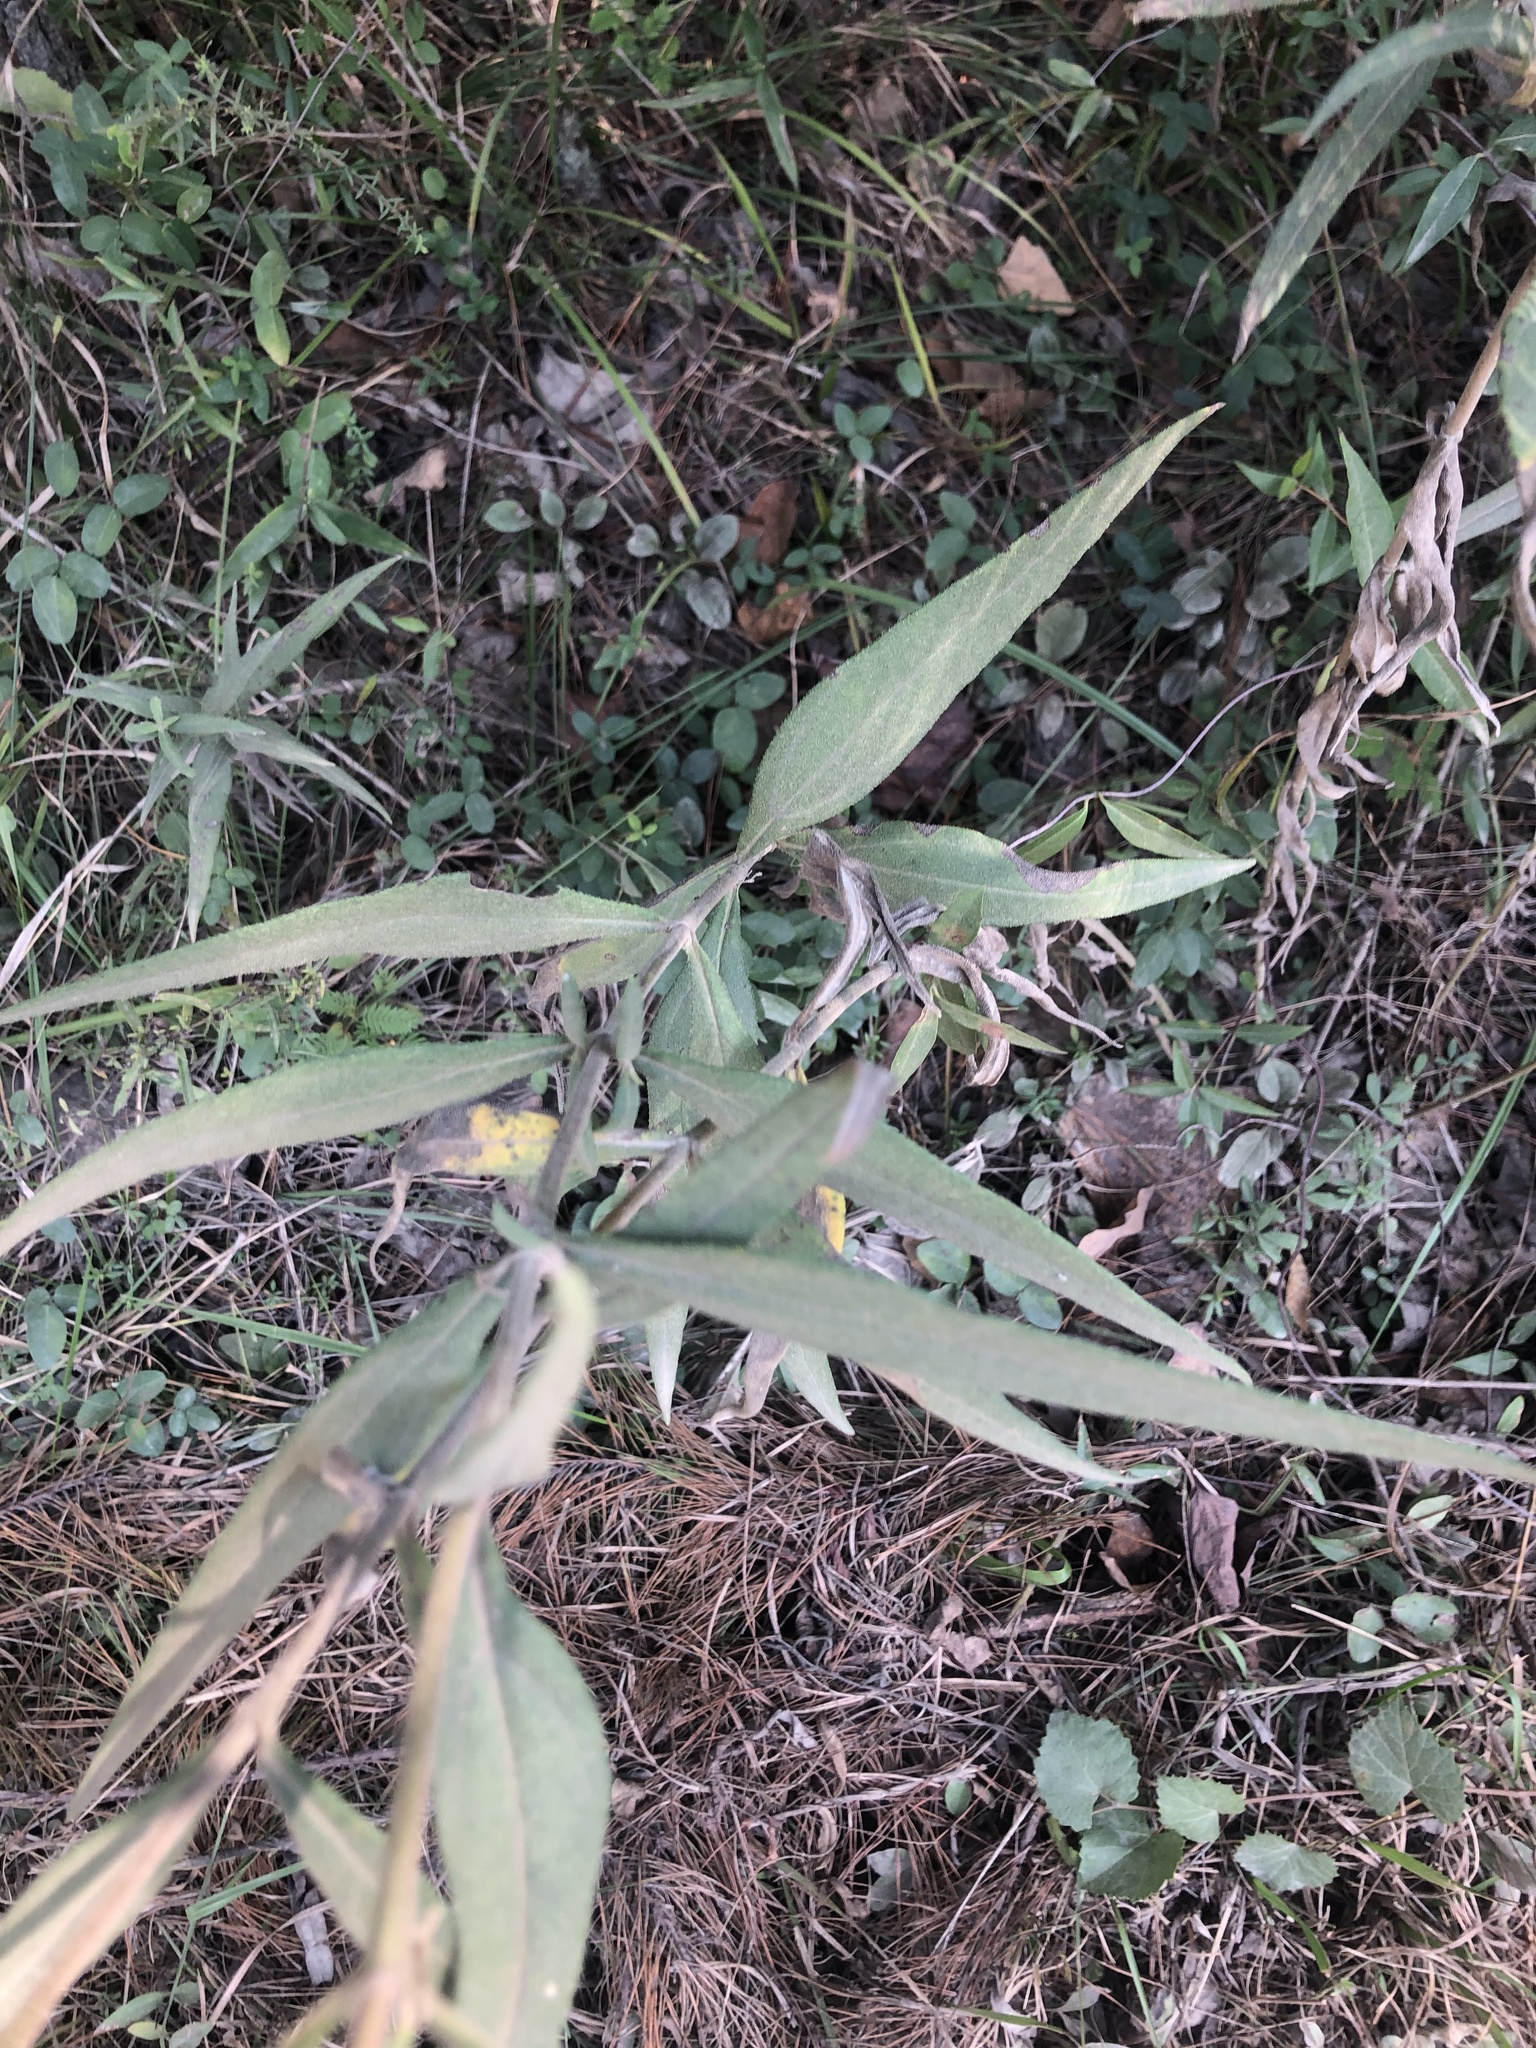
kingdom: Plantae
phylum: Tracheophyta
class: Magnoliopsida
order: Asterales
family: Asteraceae
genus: Helianthus
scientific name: Helianthus schweinitzii
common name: Schweinitz's sunflower
